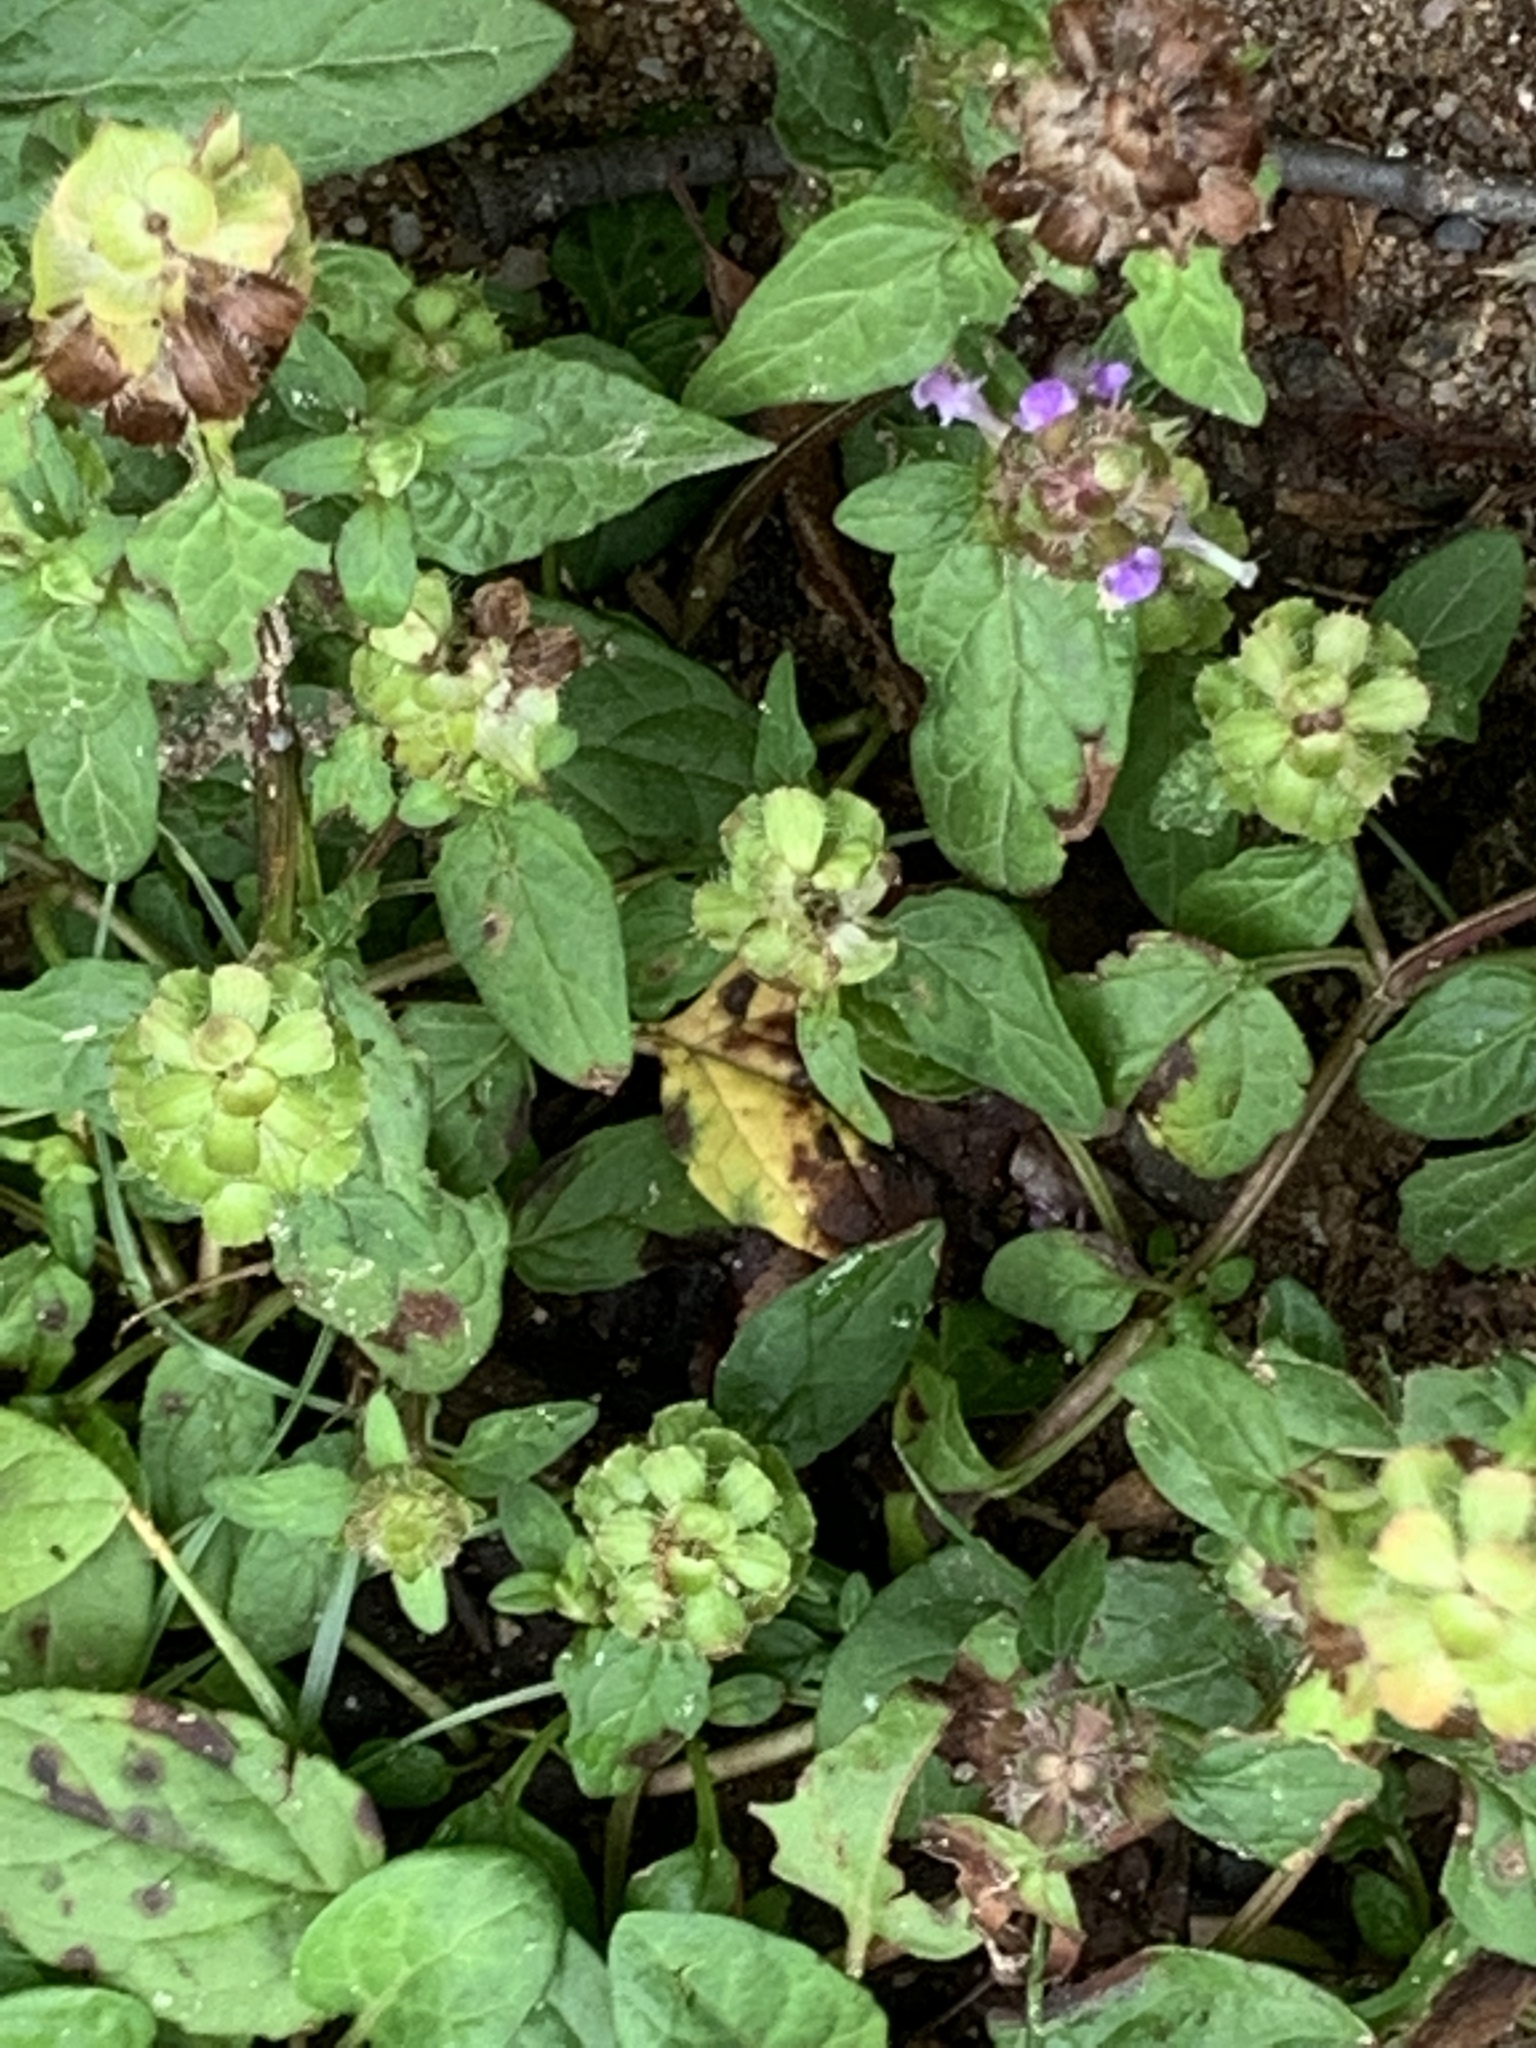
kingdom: Plantae
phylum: Tracheophyta
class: Magnoliopsida
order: Lamiales
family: Lamiaceae
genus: Prunella
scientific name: Prunella vulgaris
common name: Heal-all
